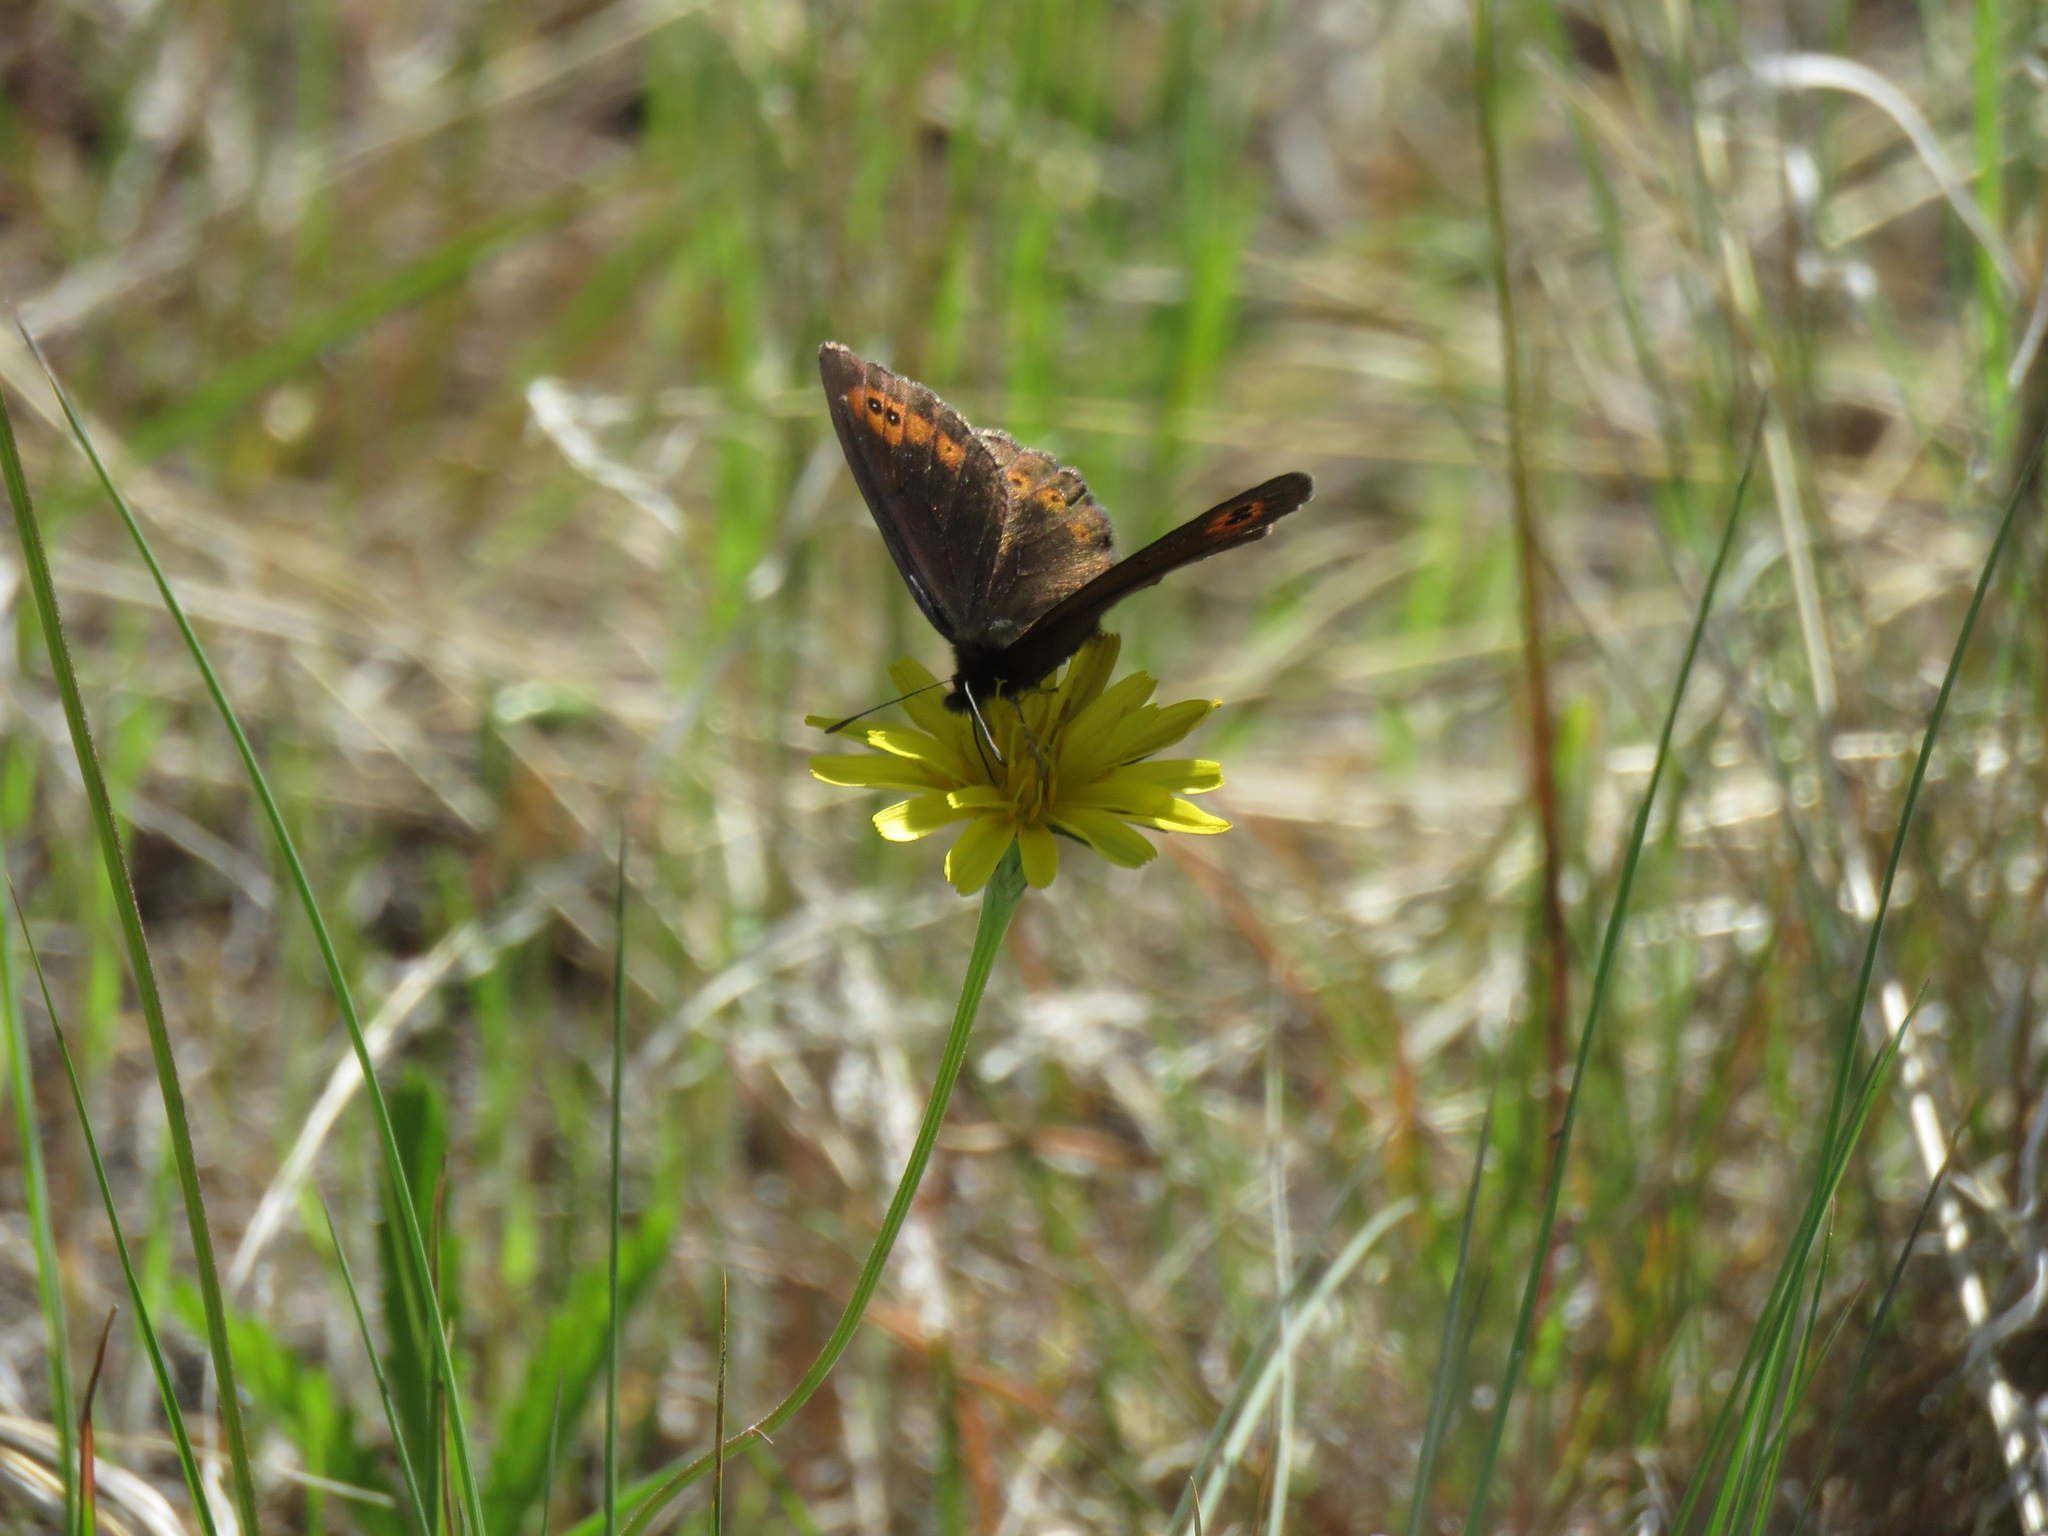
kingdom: Animalia
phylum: Arthropoda
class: Insecta
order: Lepidoptera
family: Nymphalidae
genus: Erebia
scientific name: Erebia epipsodea
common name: Common alpine
